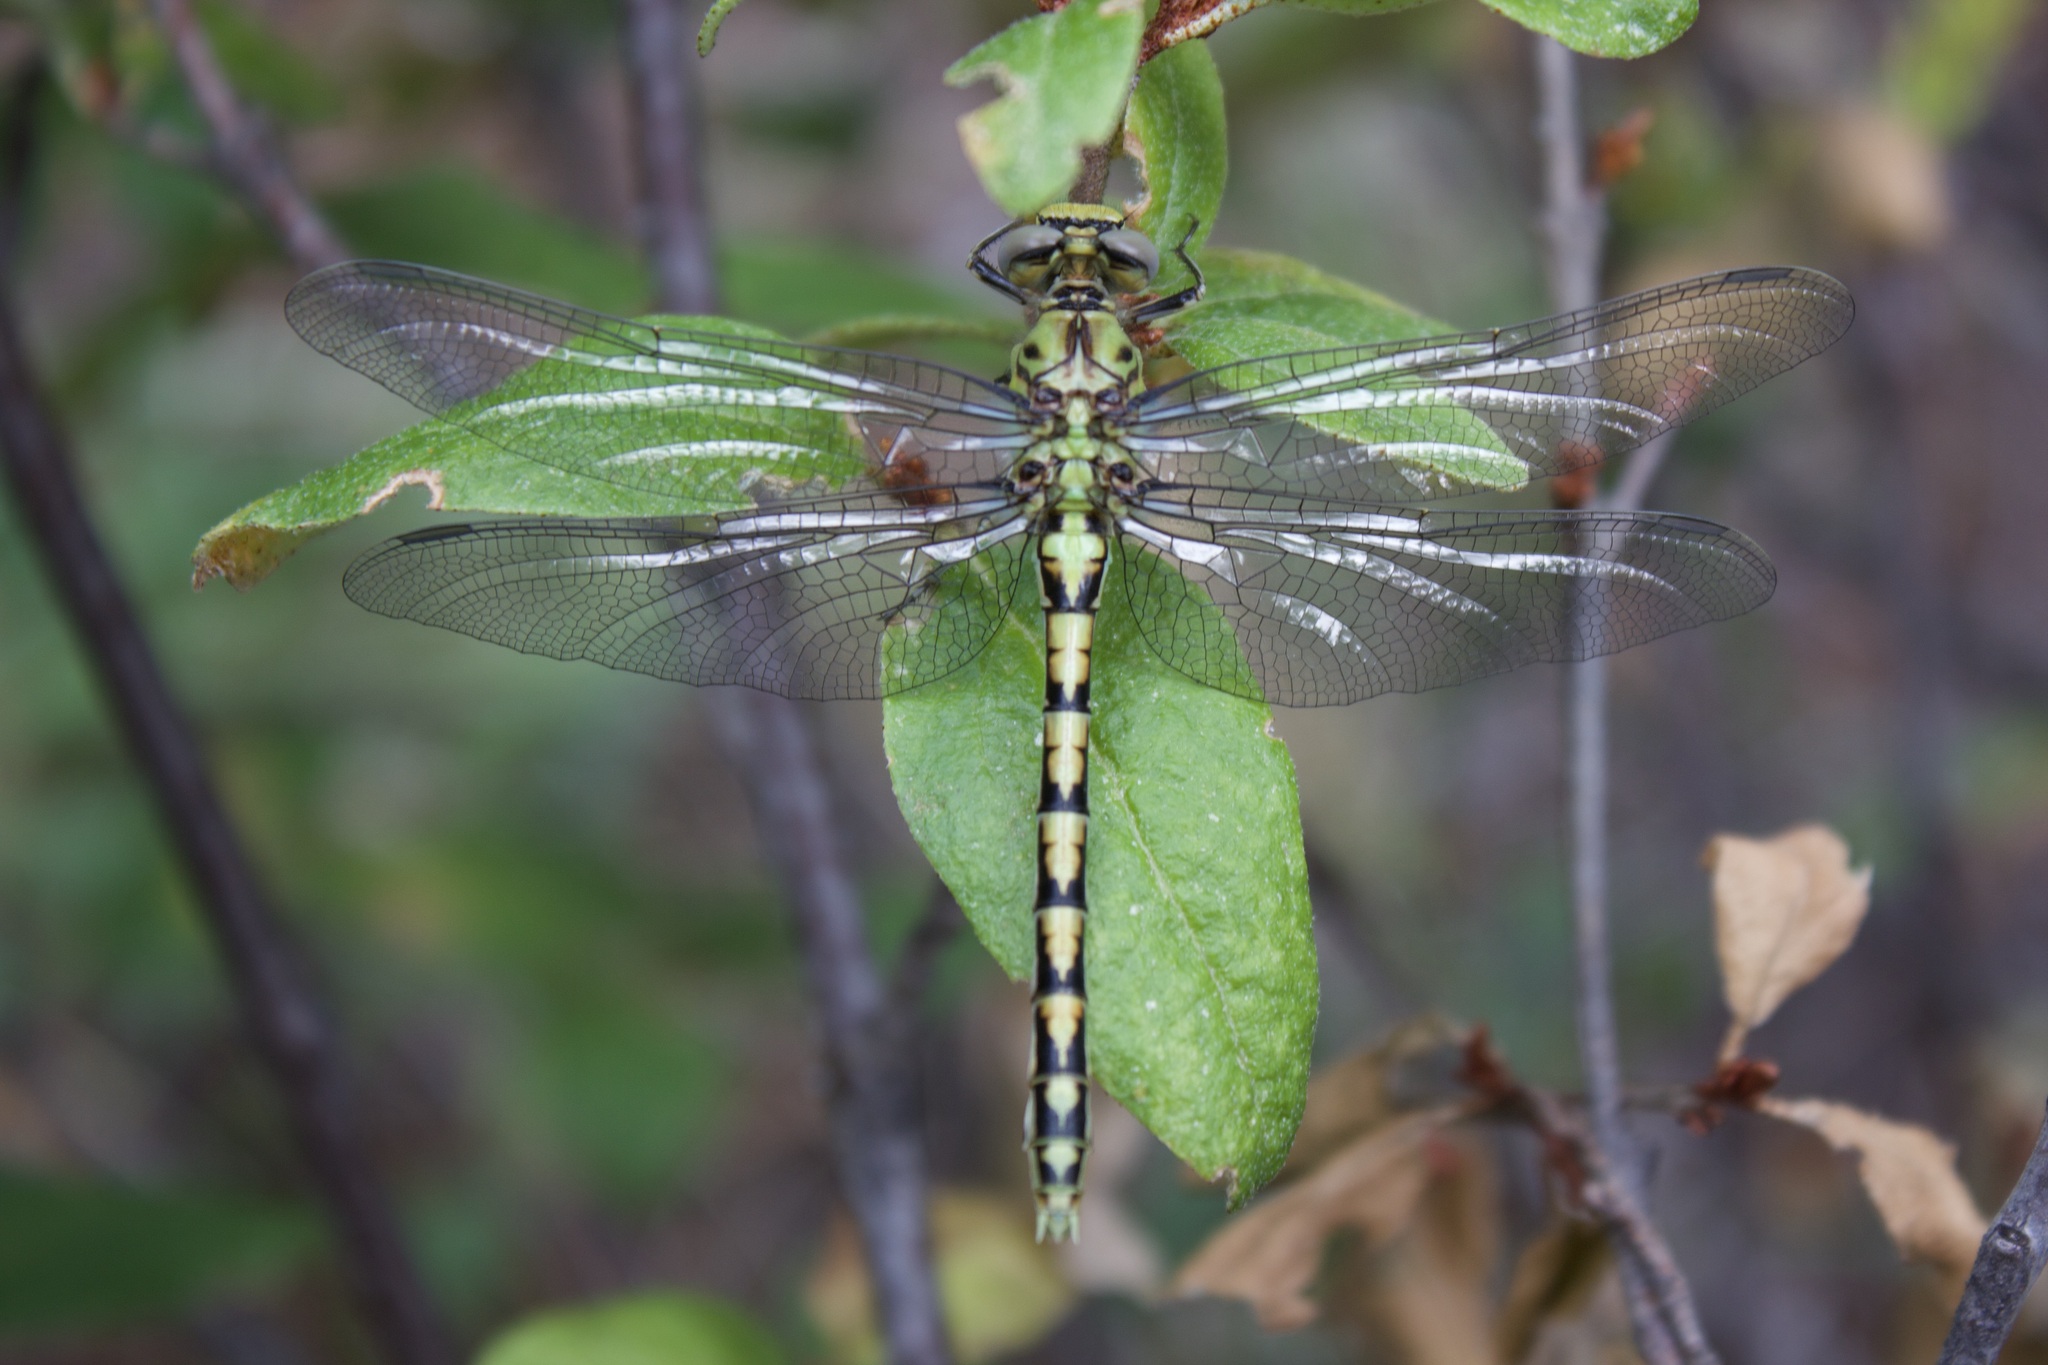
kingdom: Animalia
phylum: Arthropoda
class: Insecta
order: Odonata
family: Gomphidae
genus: Ophiogomphus
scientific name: Ophiogomphus severus
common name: Pale snaketail
